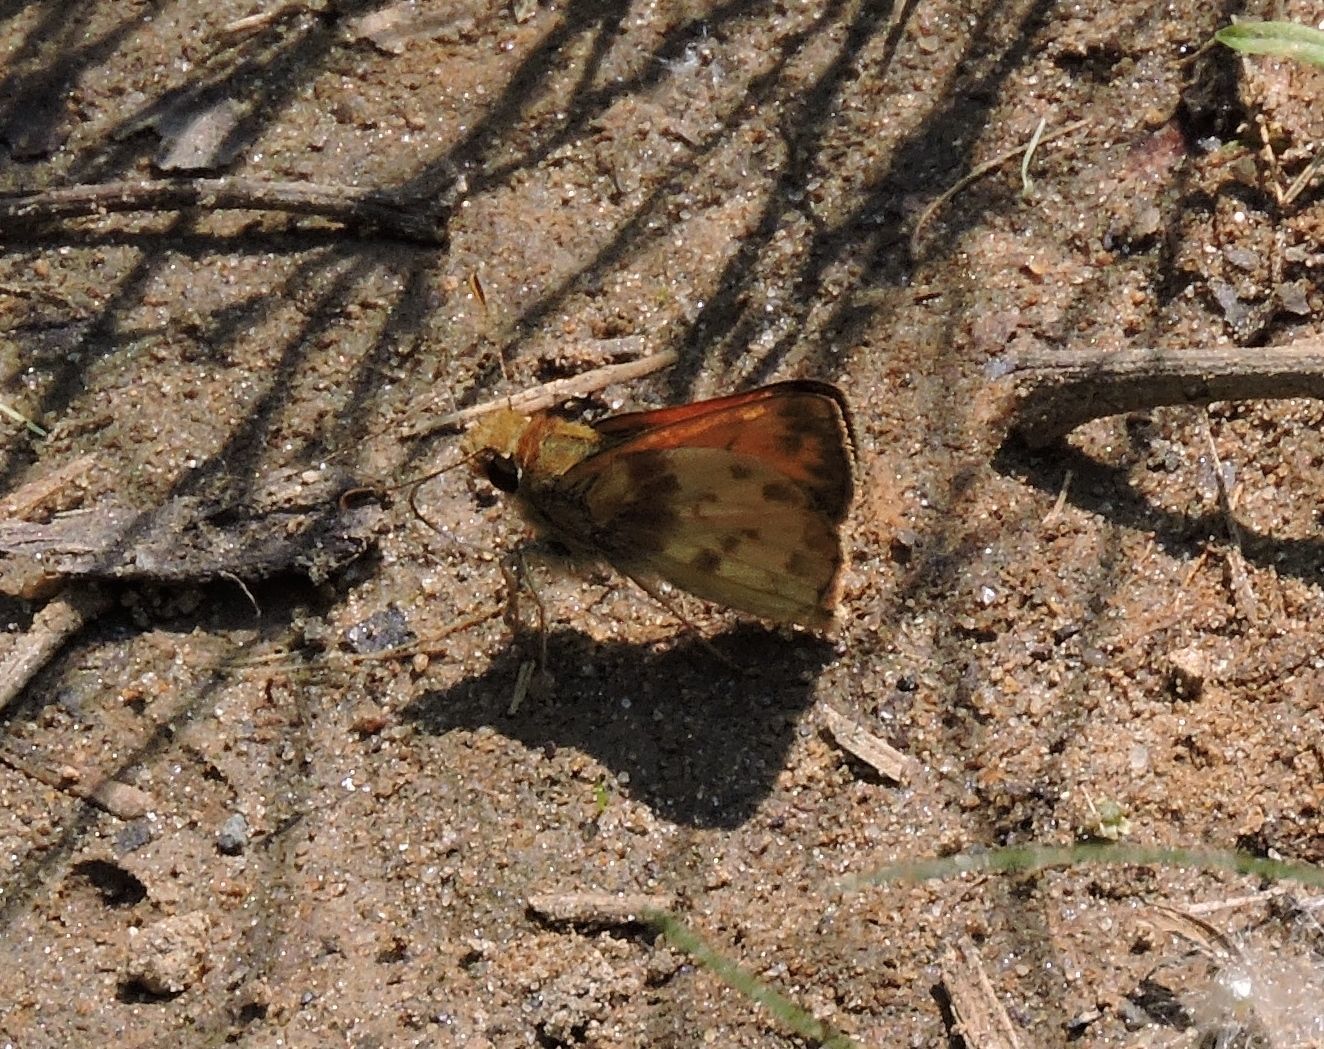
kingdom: Animalia
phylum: Arthropoda
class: Insecta
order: Lepidoptera
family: Hesperiidae
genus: Lon
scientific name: Lon zabulon
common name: Zabulon skipper
